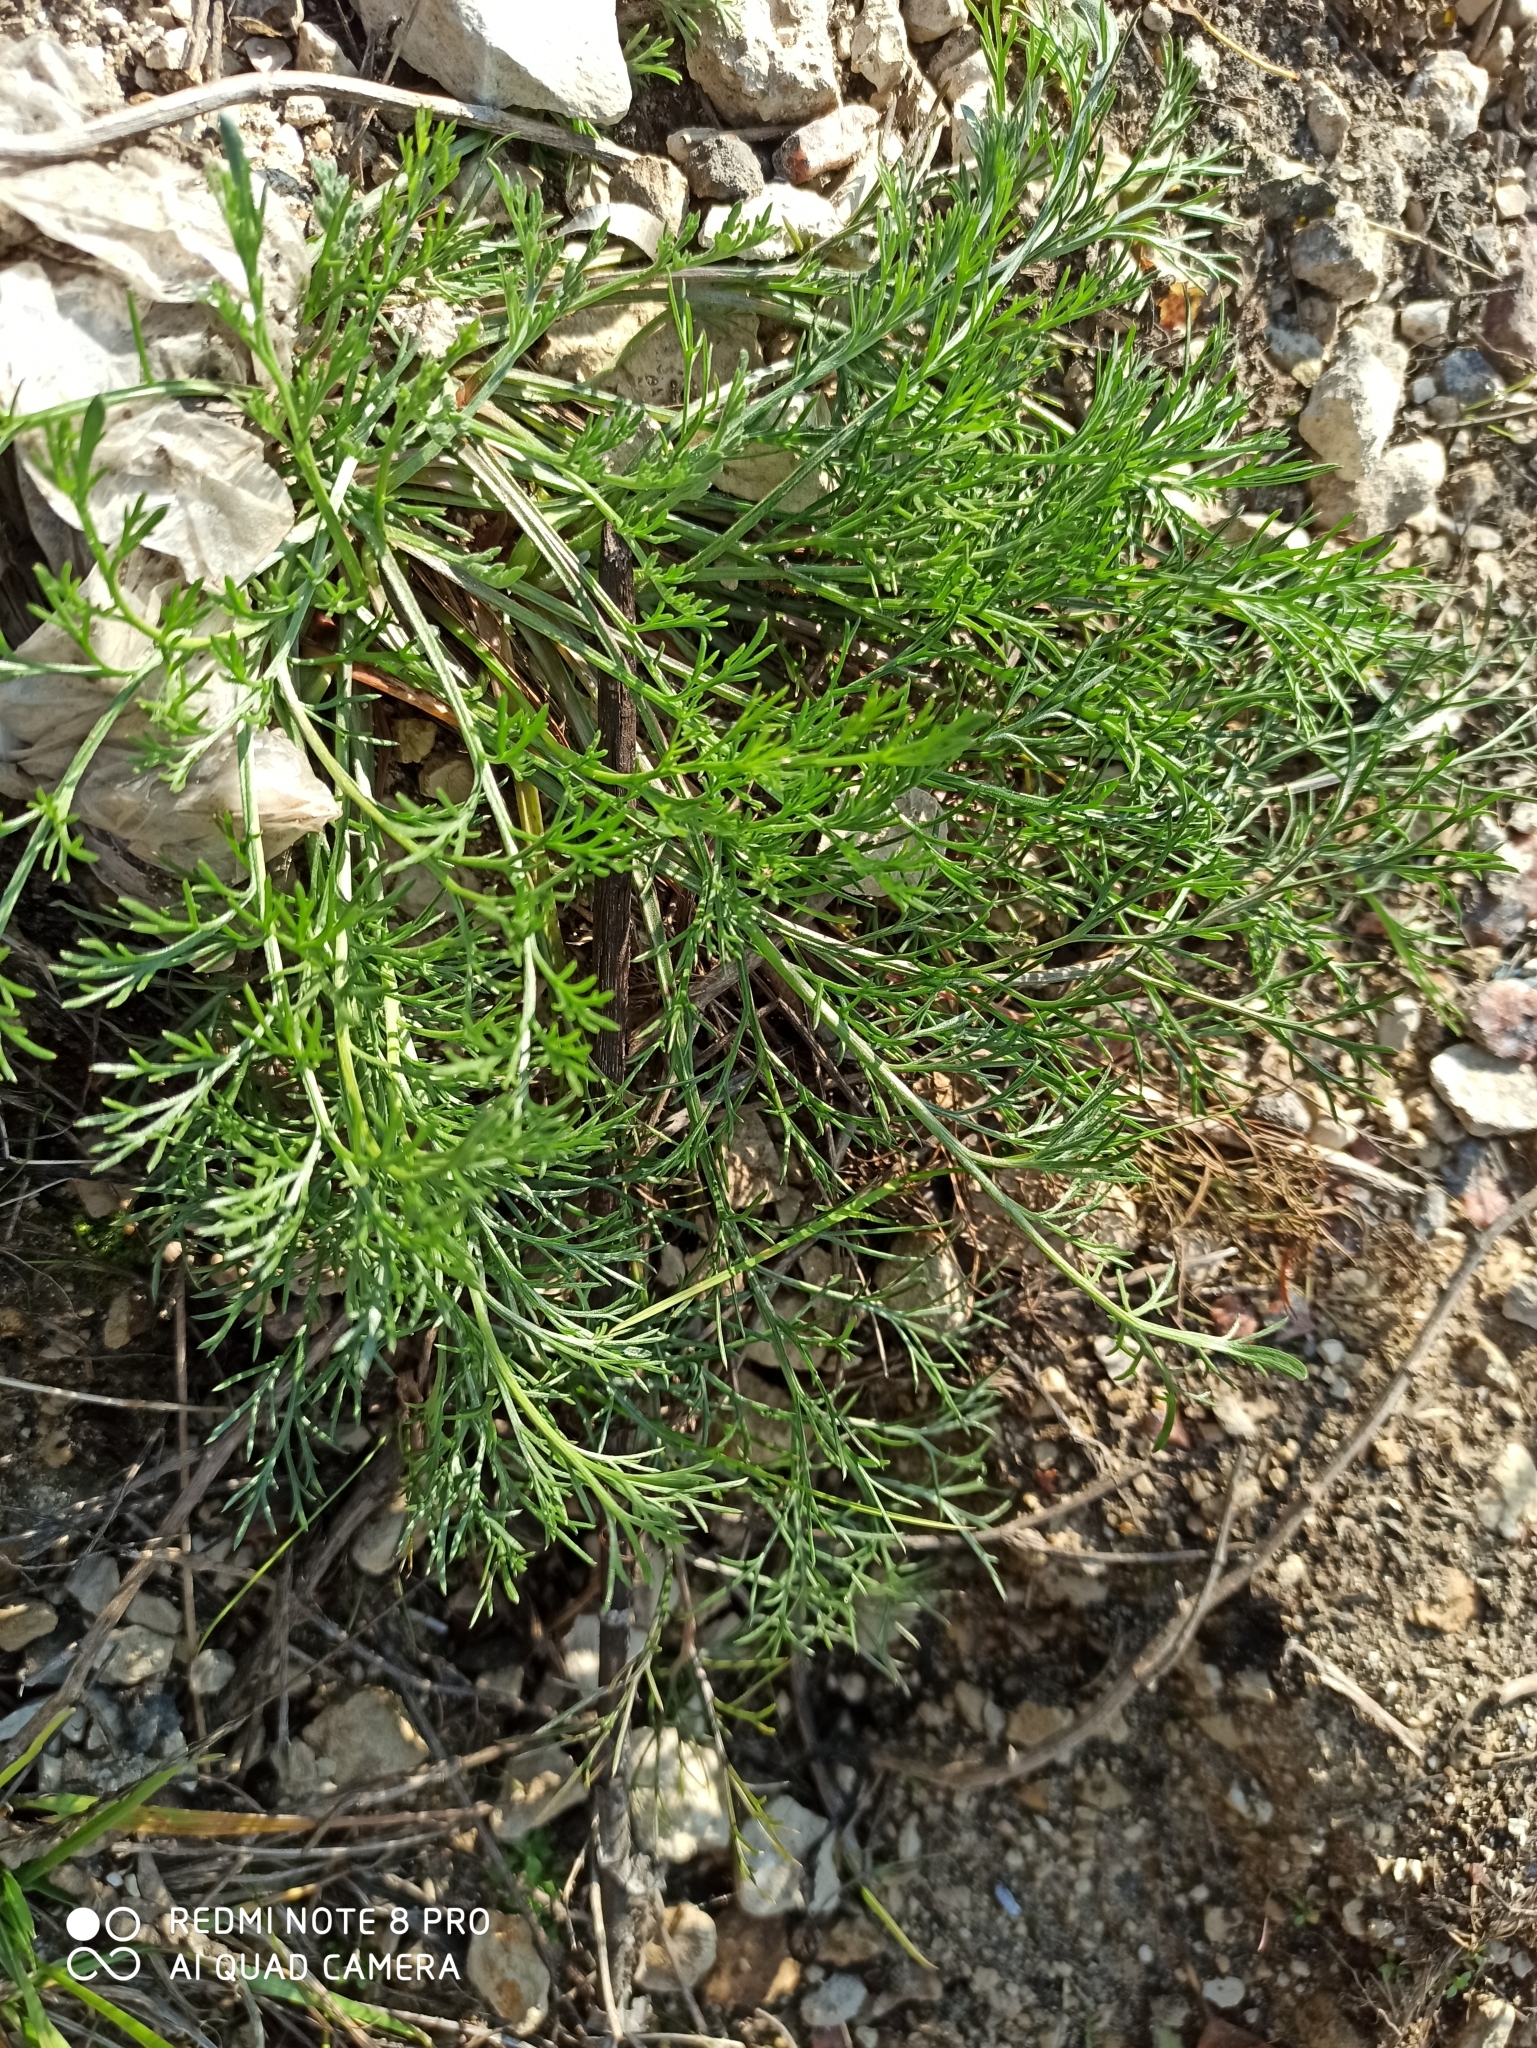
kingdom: Plantae
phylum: Tracheophyta
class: Magnoliopsida
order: Asterales
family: Asteraceae
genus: Artemisia
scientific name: Artemisia campestris
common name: Field wormwood
